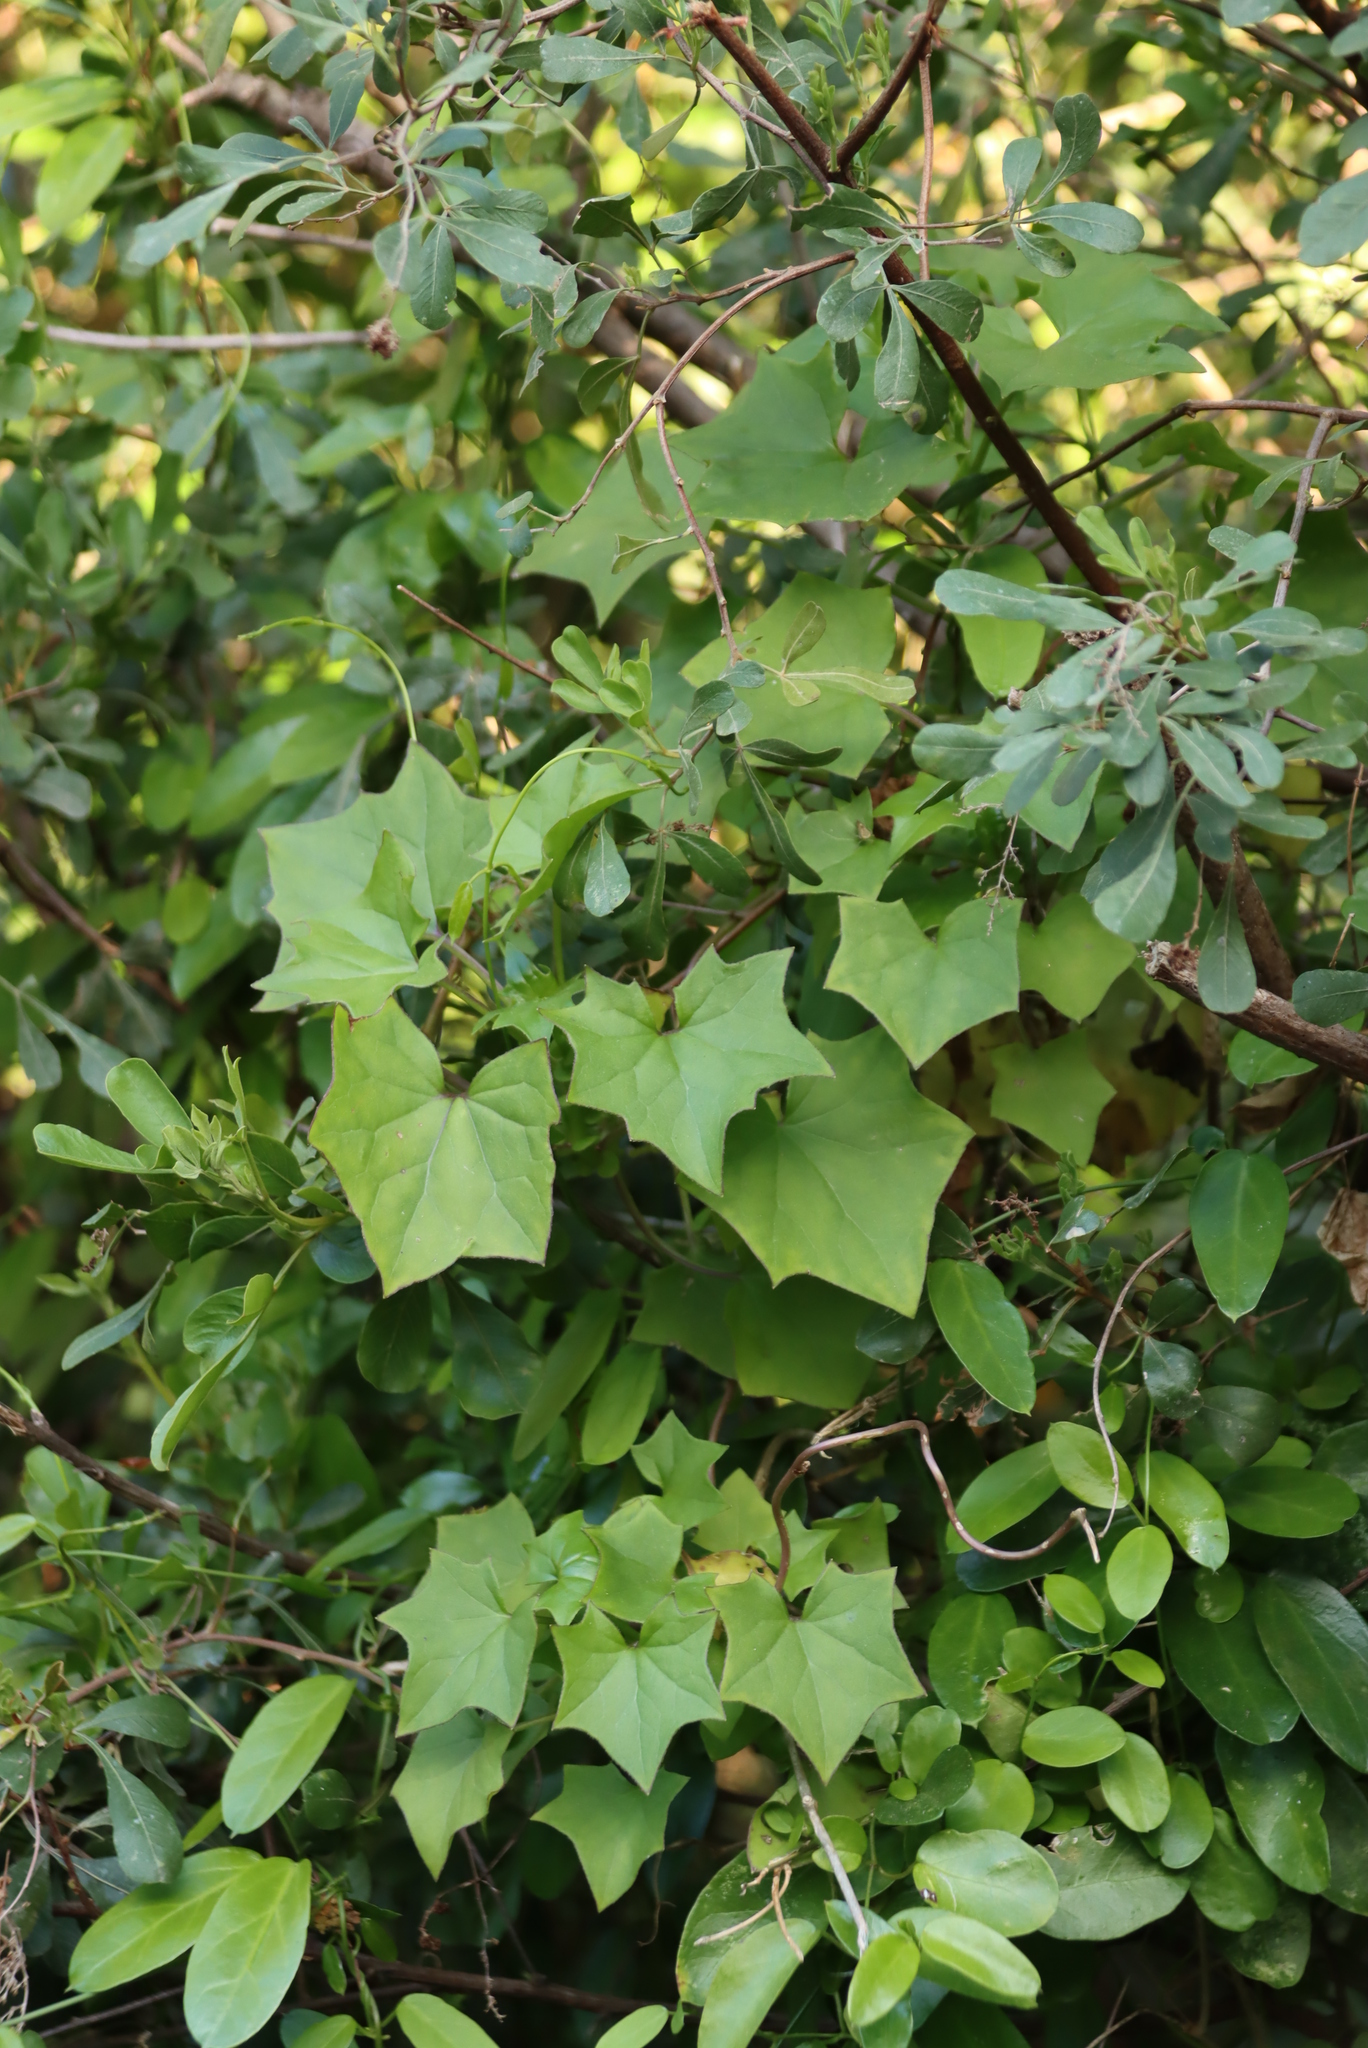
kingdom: Plantae
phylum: Tracheophyta
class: Magnoliopsida
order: Asterales
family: Asteraceae
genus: Senecio
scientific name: Senecio deltoideus
